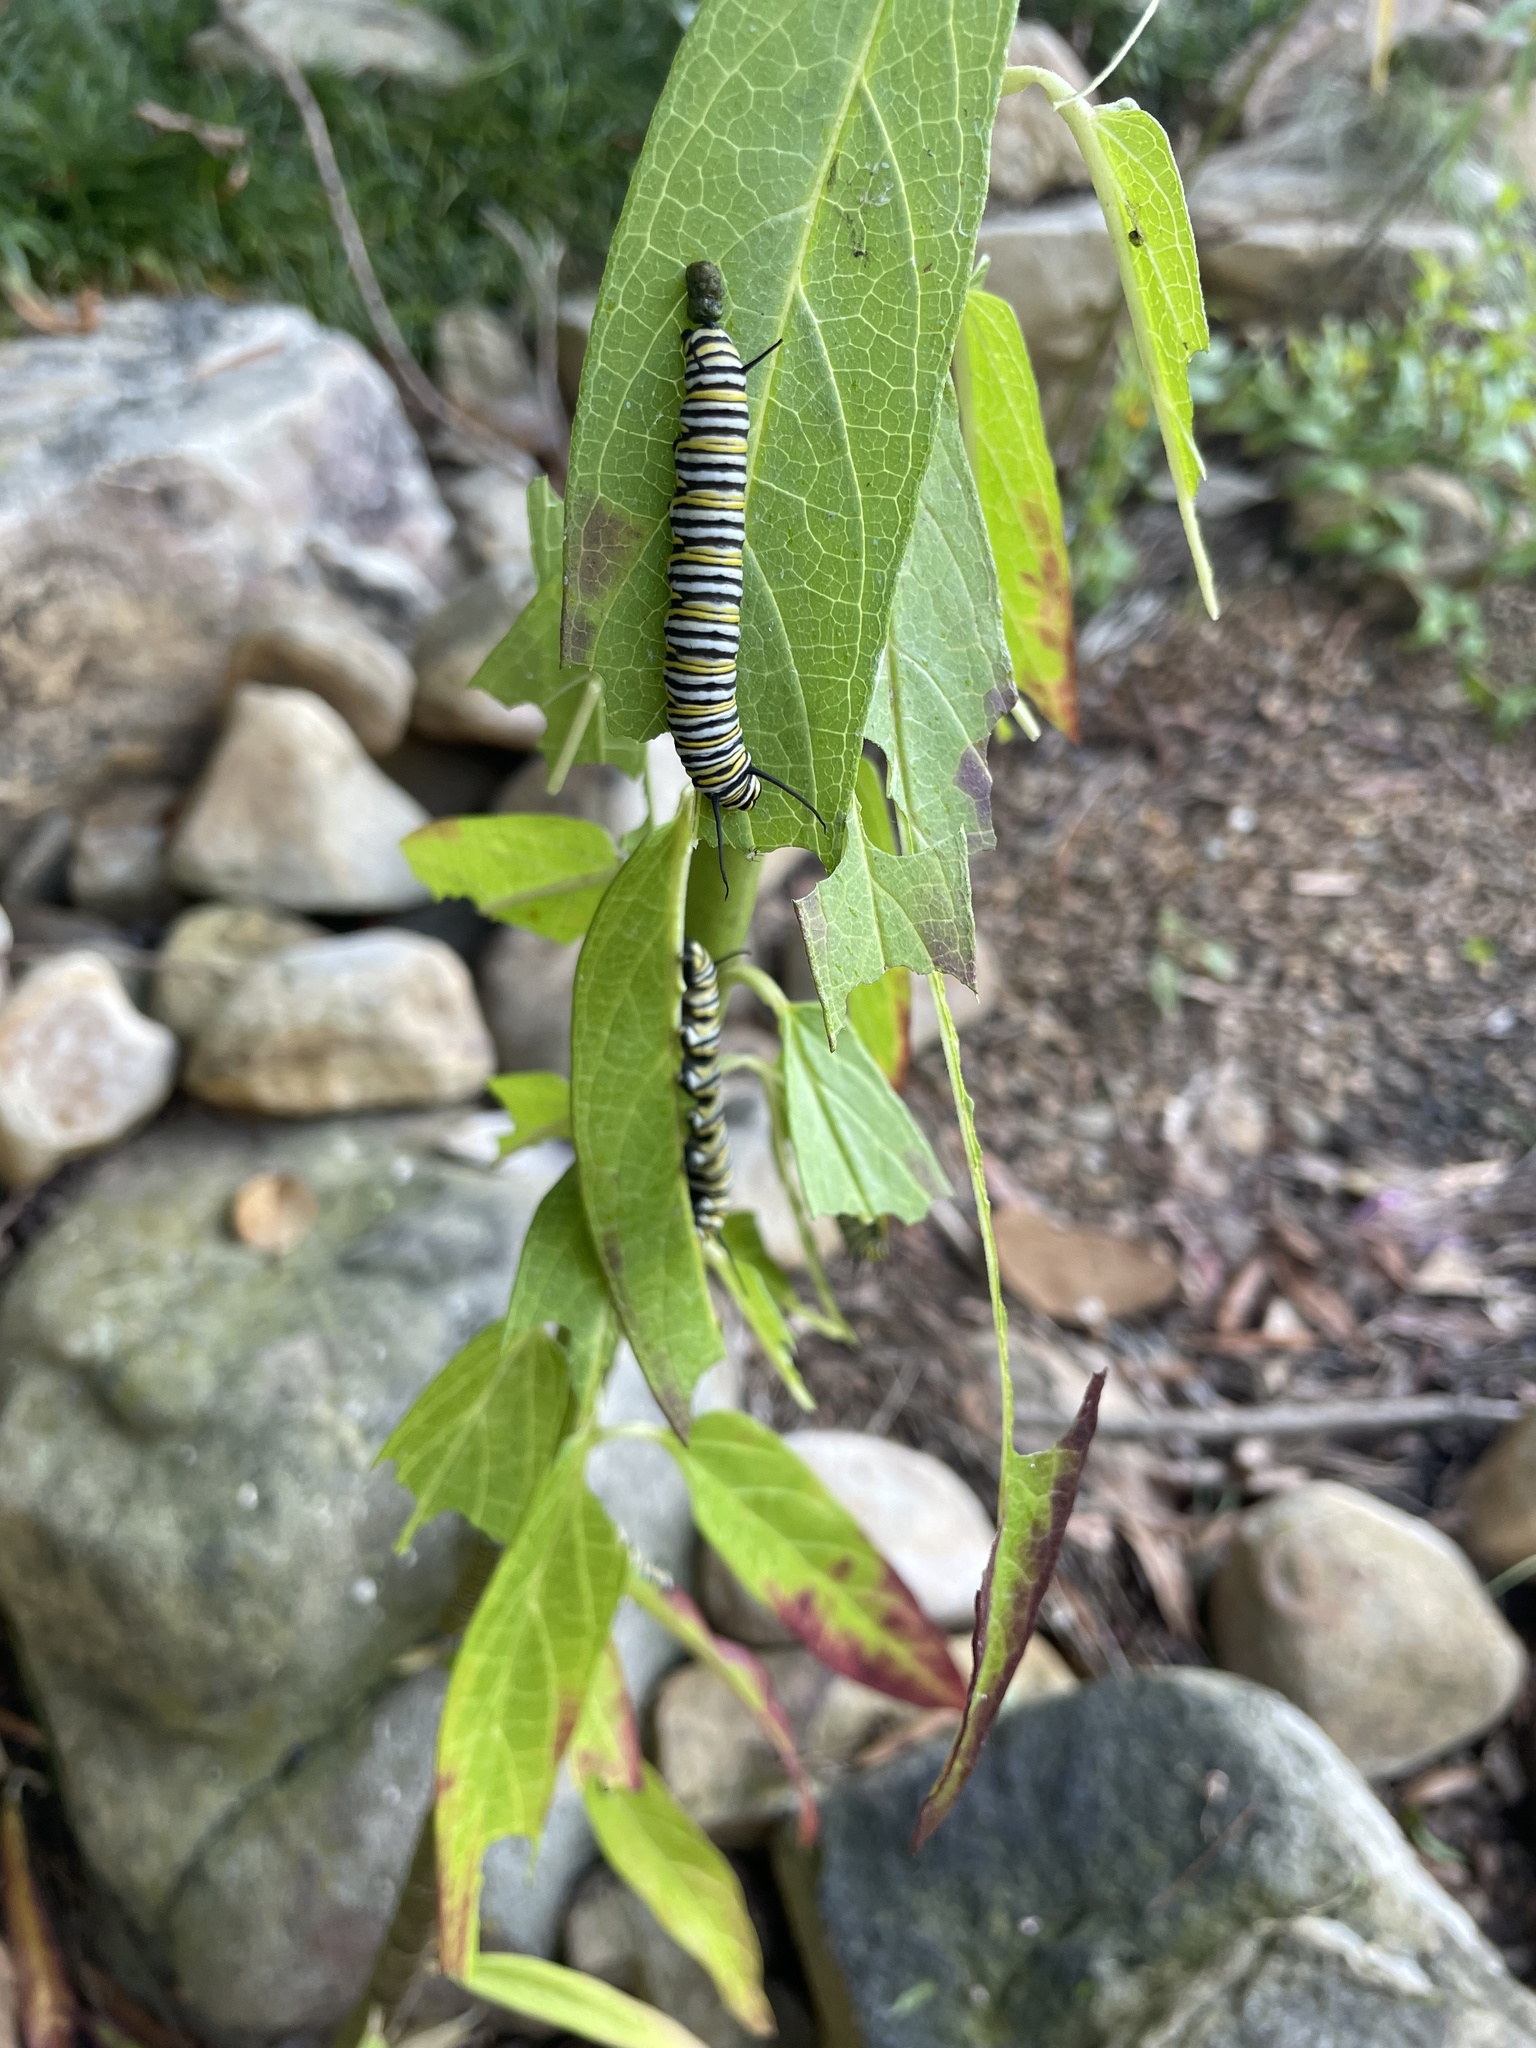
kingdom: Animalia
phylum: Arthropoda
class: Insecta
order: Lepidoptera
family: Nymphalidae
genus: Danaus
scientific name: Danaus plexippus
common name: Monarch
